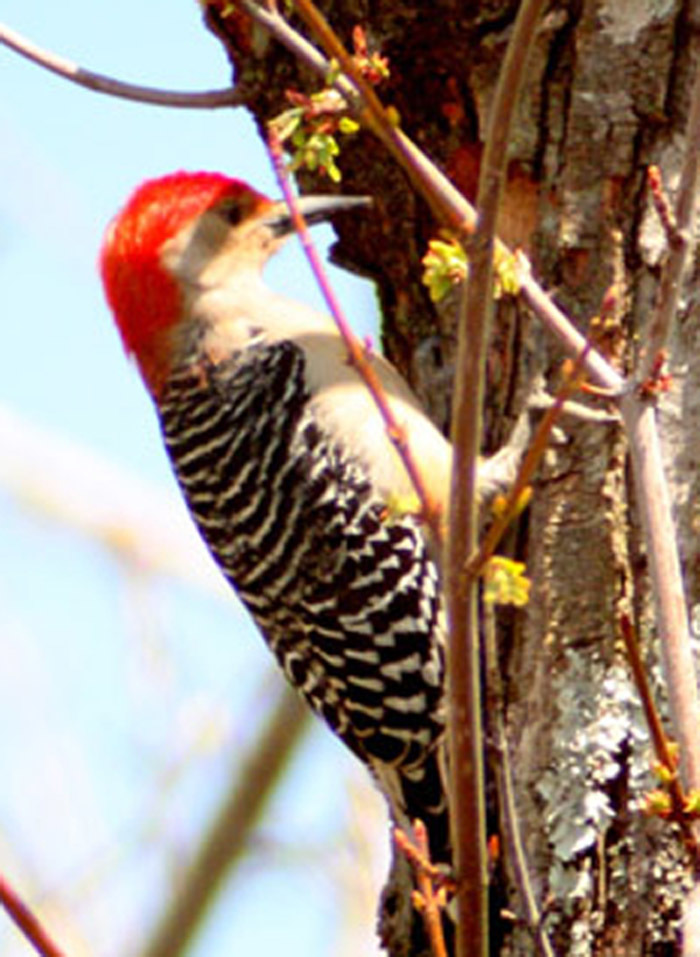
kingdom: Animalia
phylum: Chordata
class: Aves
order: Piciformes
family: Picidae
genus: Melanerpes
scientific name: Melanerpes carolinus
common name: Red-bellied woodpecker
